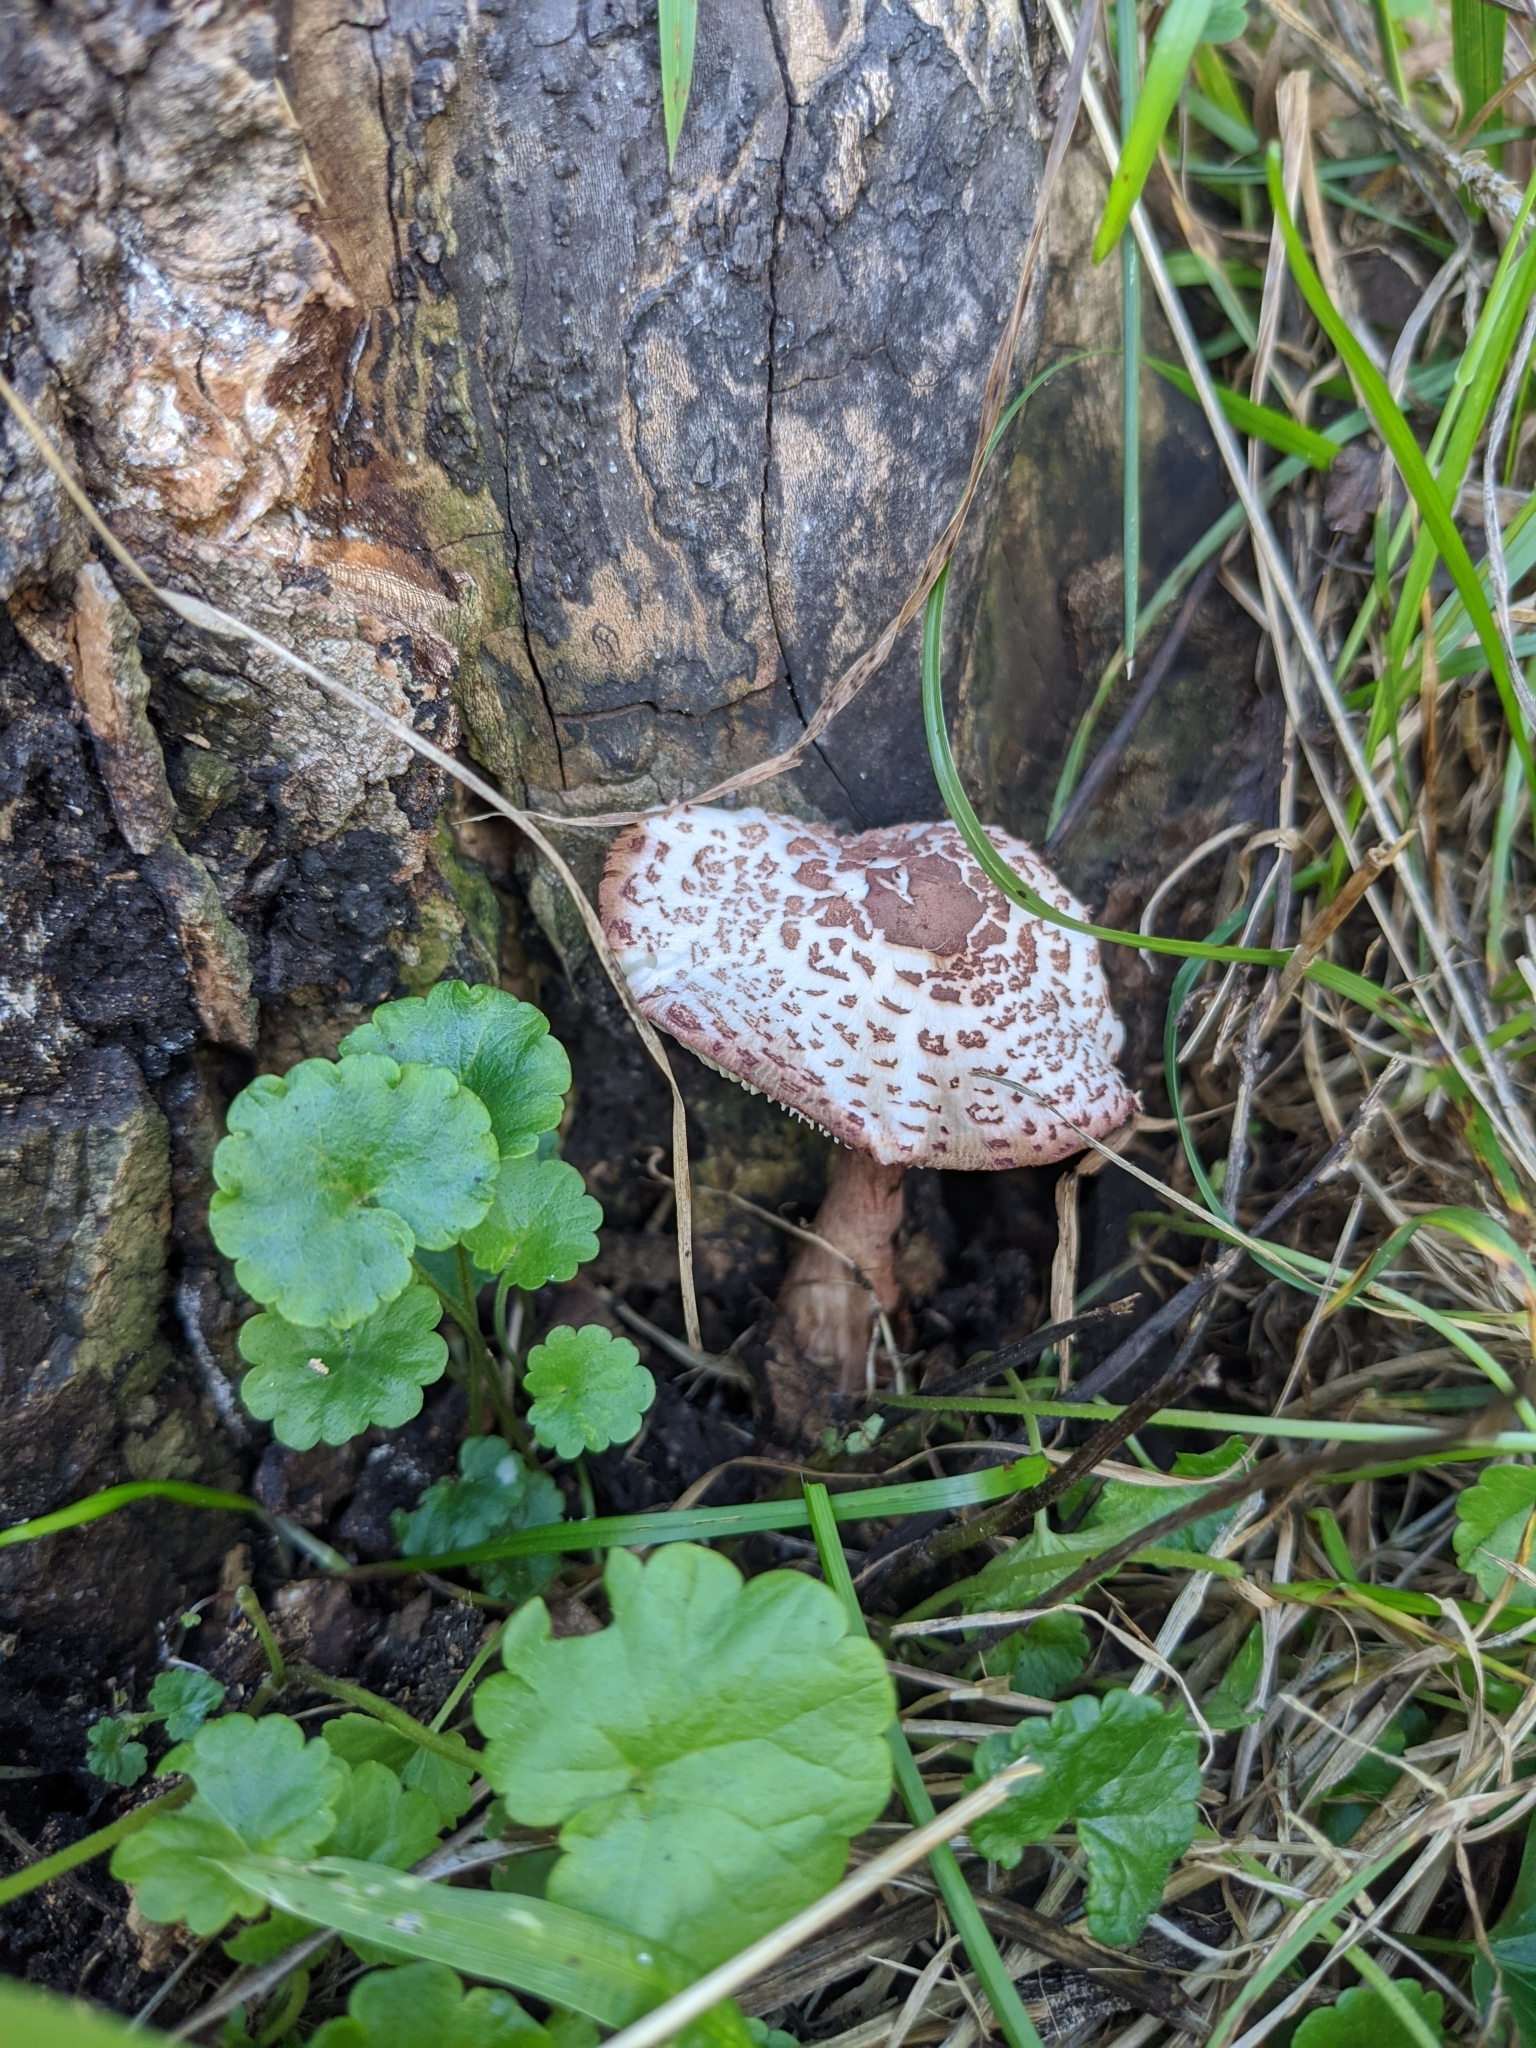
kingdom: Fungi
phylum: Basidiomycota
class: Agaricomycetes
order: Agaricales
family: Agaricaceae
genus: Leucoagaricus
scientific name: Leucoagaricus americanus
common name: Reddening lepiota
